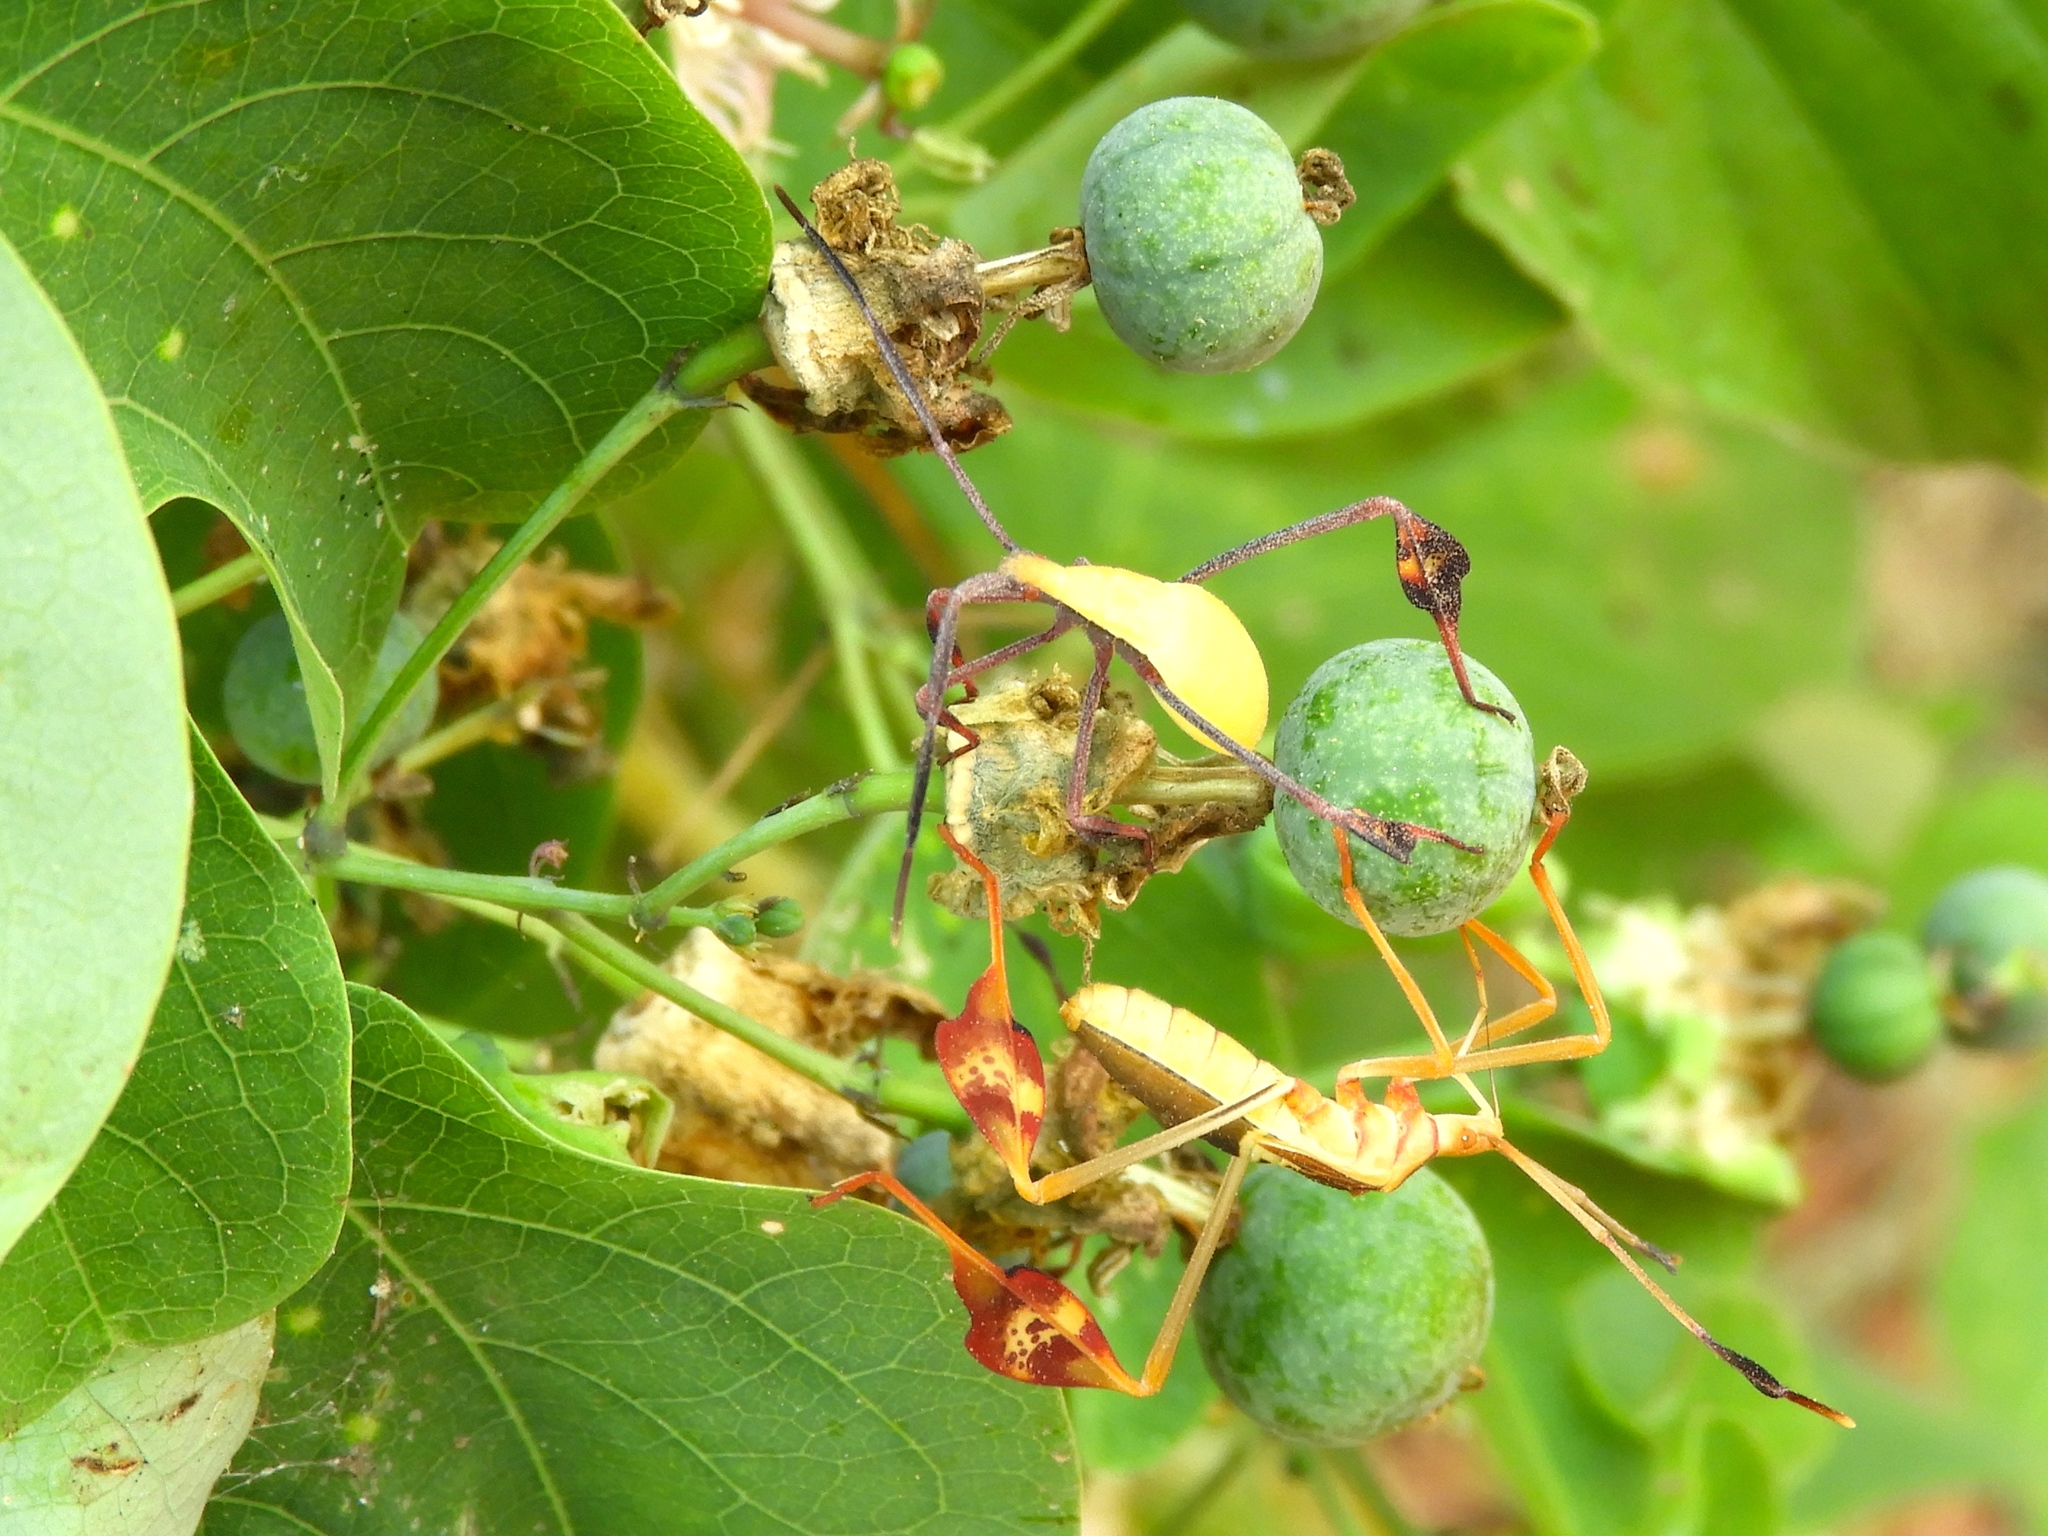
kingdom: Animalia
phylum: Arthropoda
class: Insecta
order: Hemiptera
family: Coreidae
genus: Bitta
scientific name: Bitta
